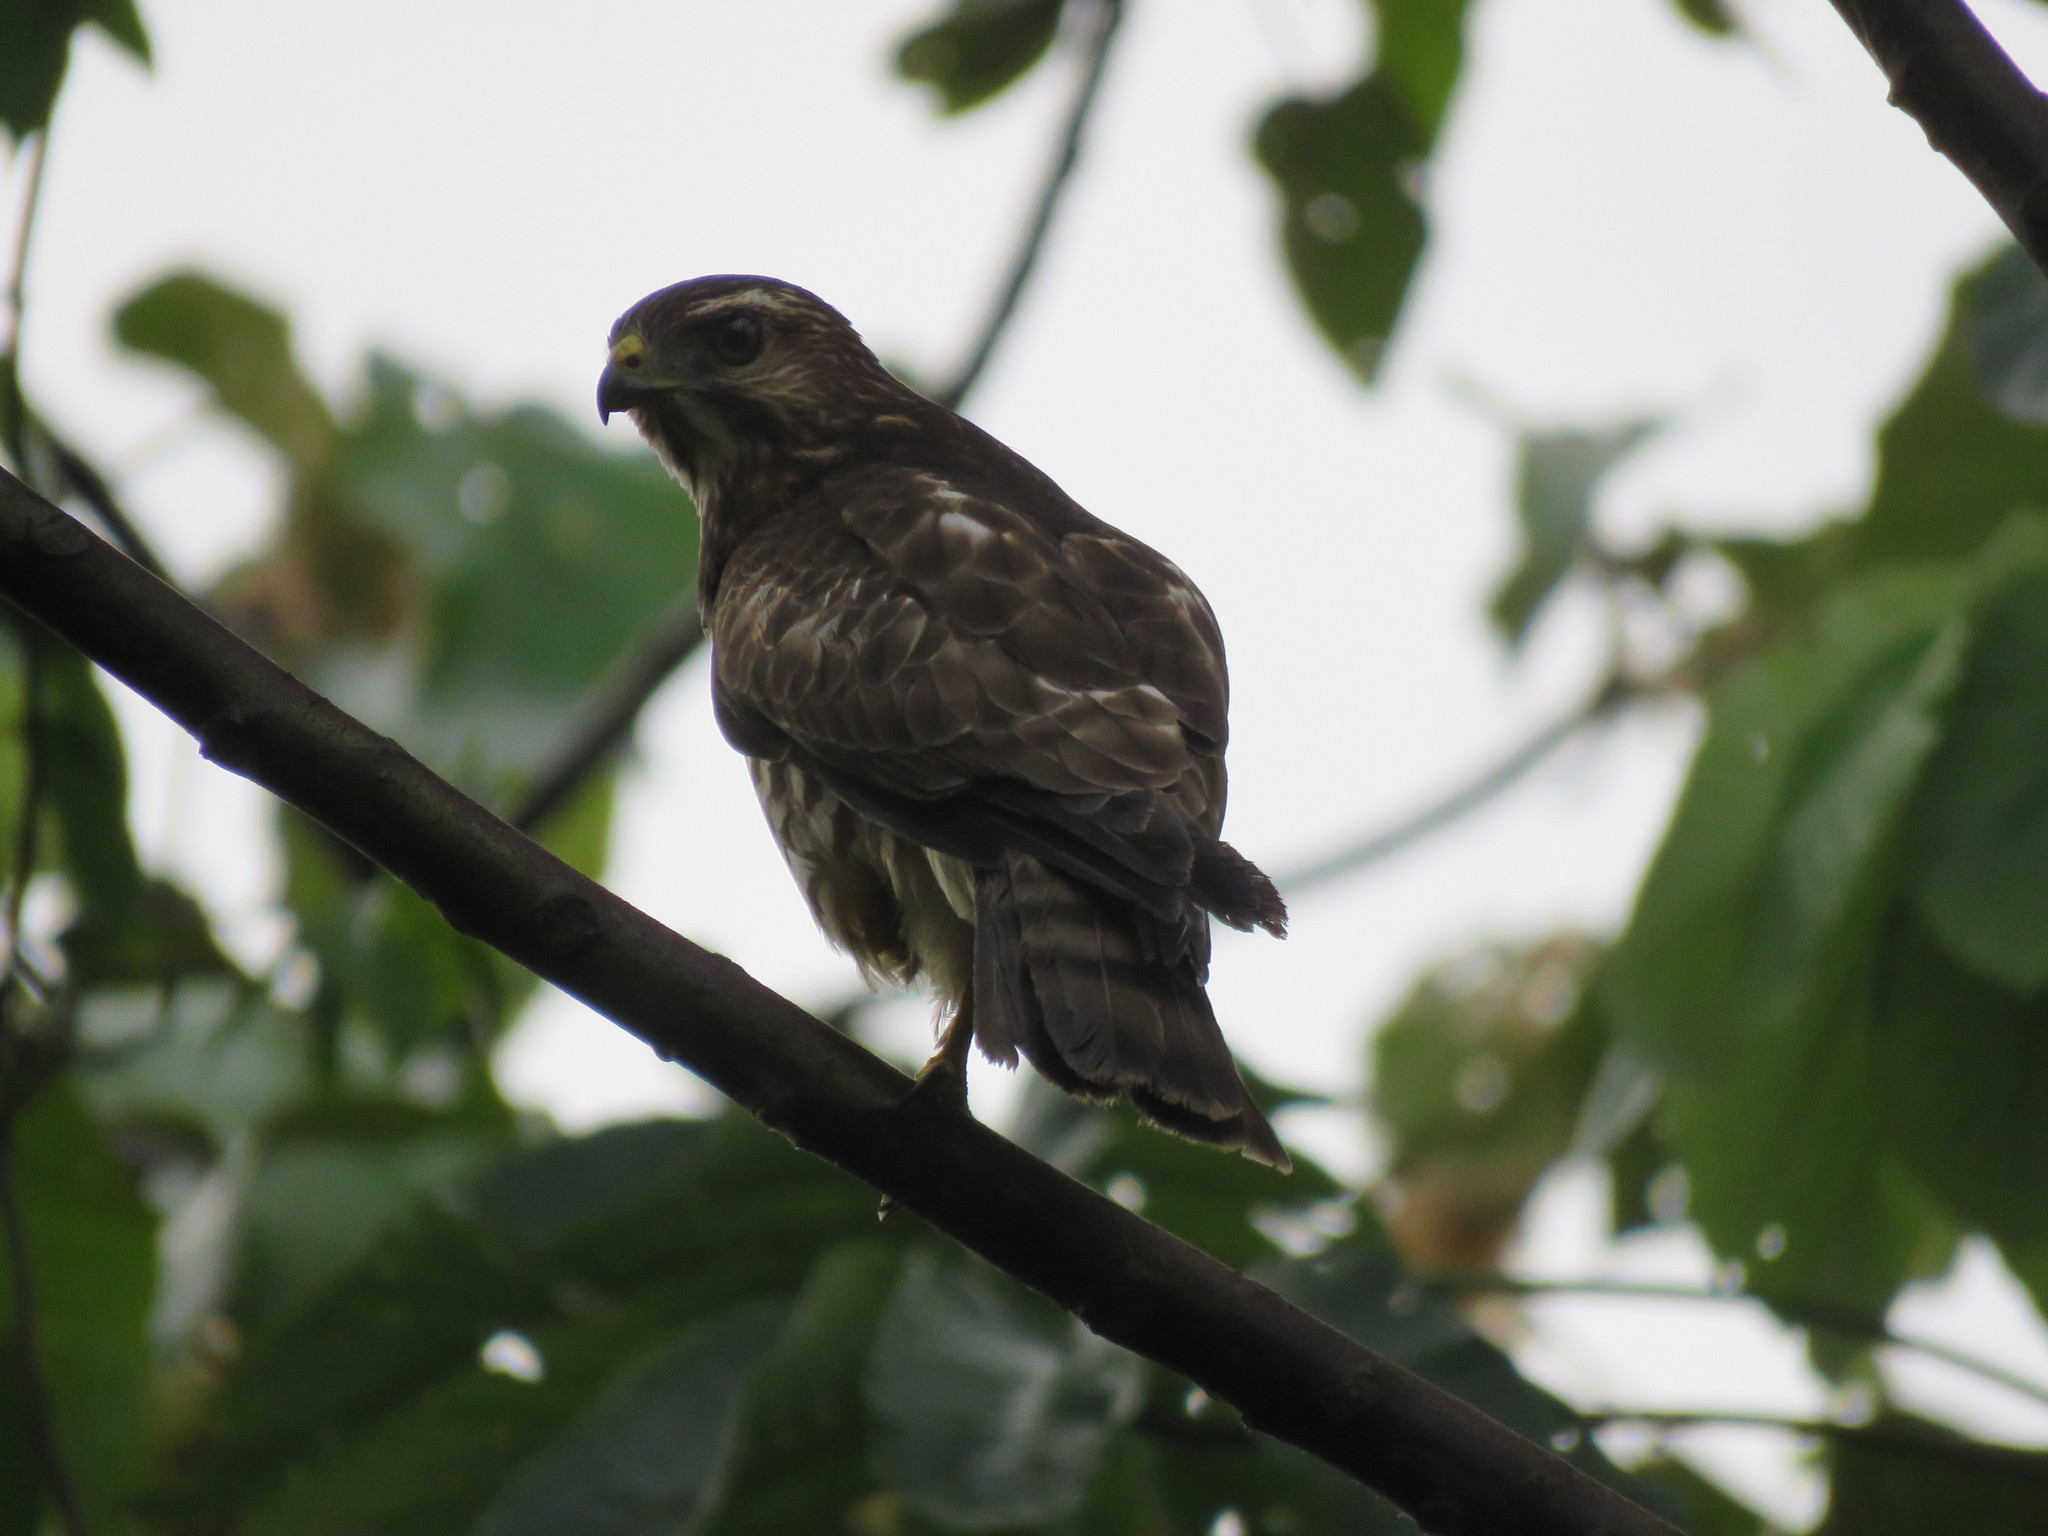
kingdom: Animalia
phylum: Chordata
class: Aves
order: Accipitriformes
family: Accipitridae
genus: Buteo
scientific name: Buteo platypterus
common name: Broad-winged hawk
